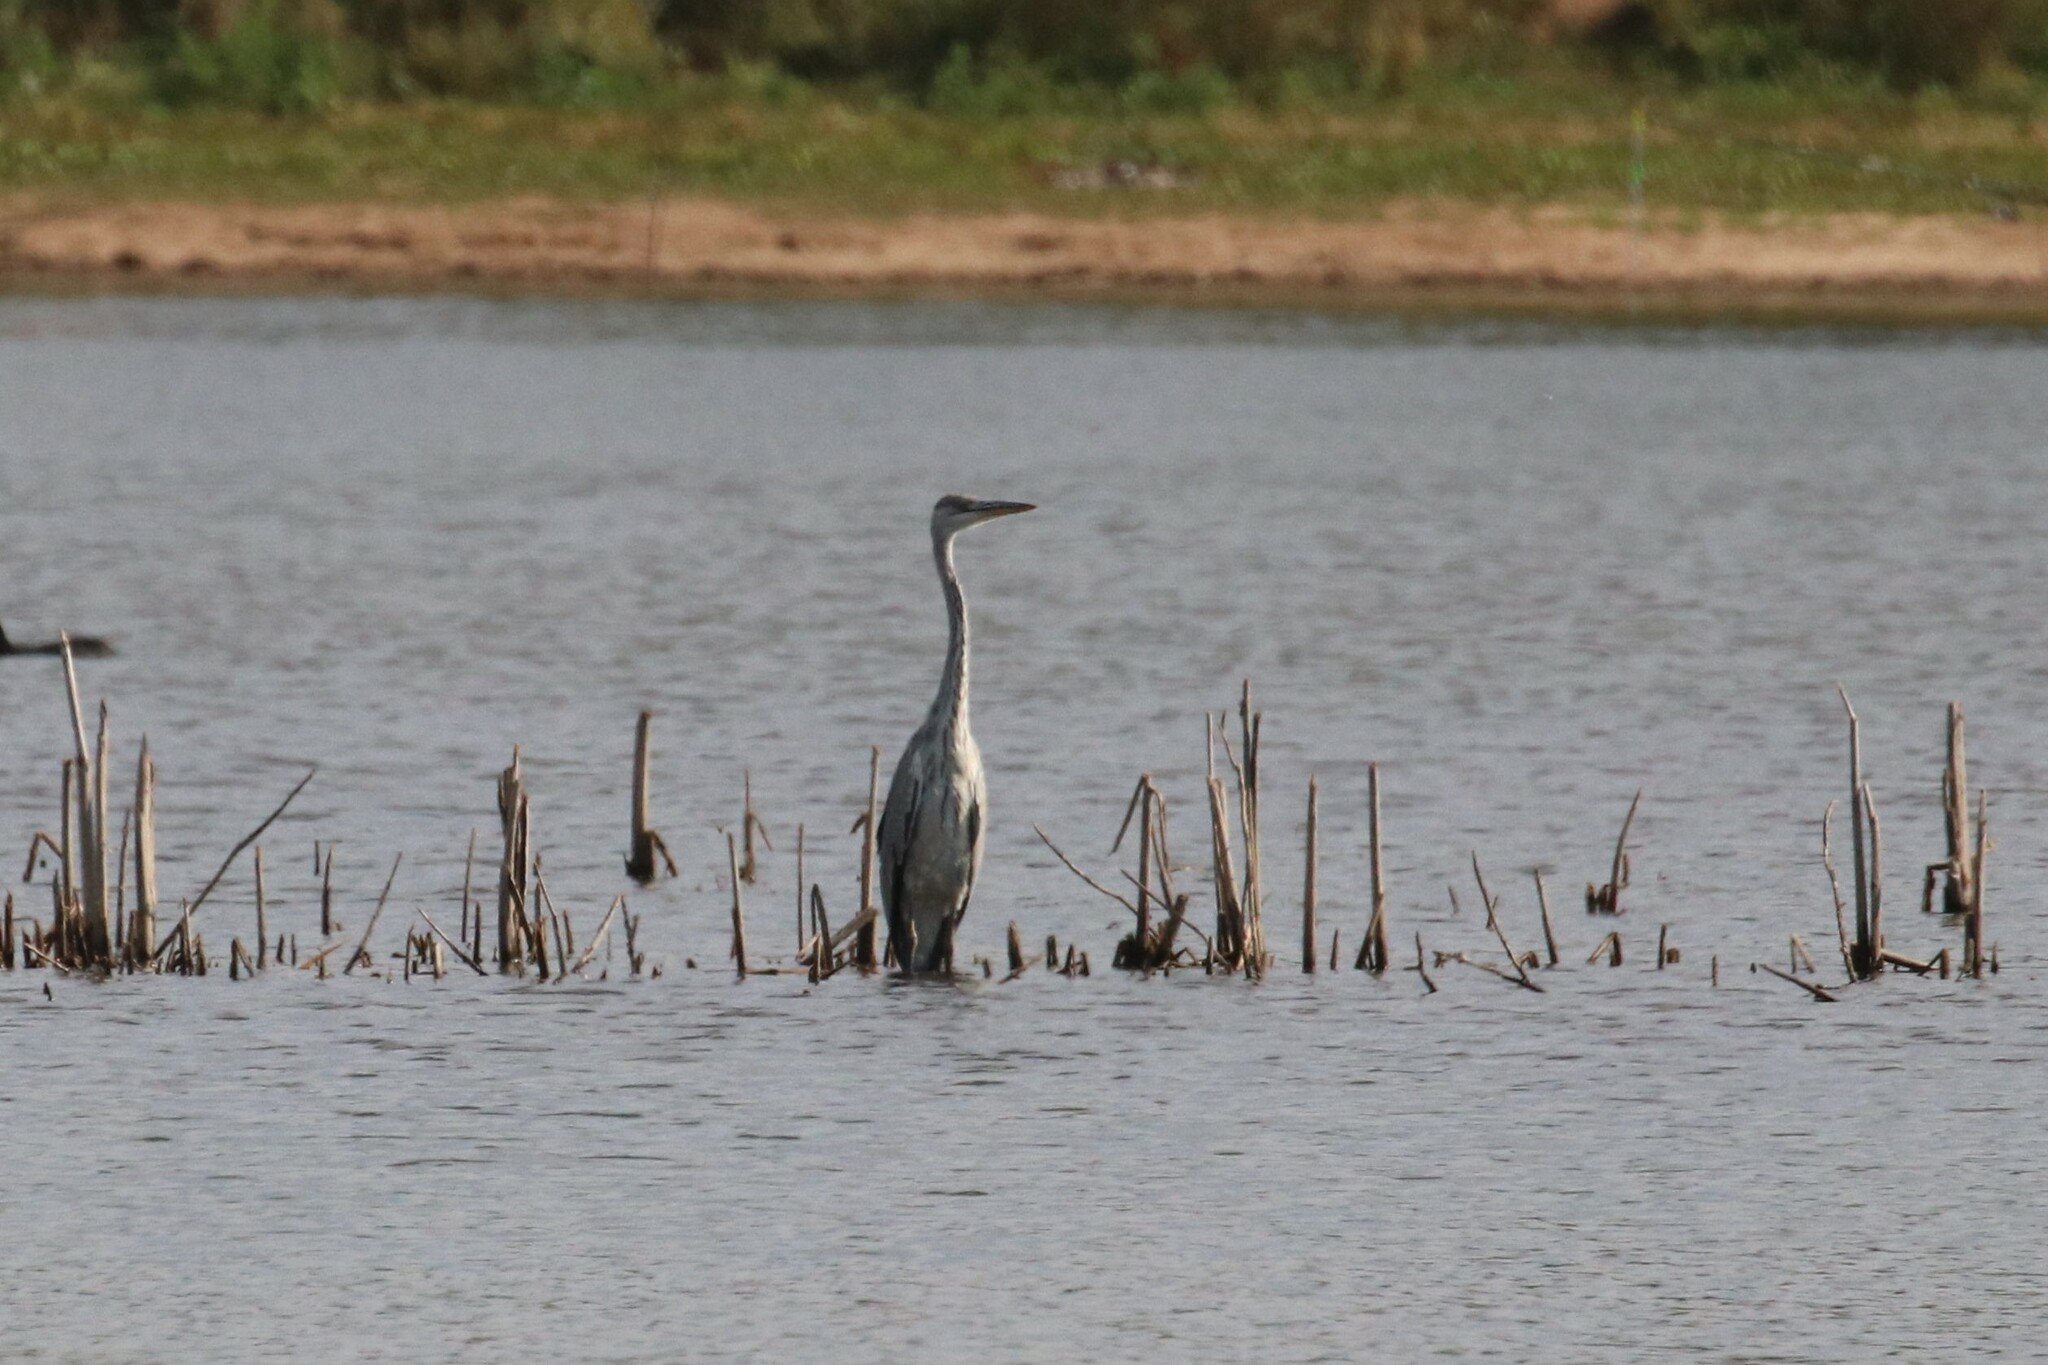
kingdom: Animalia
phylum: Chordata
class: Aves
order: Pelecaniformes
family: Ardeidae
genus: Ardea
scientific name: Ardea cinerea
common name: Grey heron
